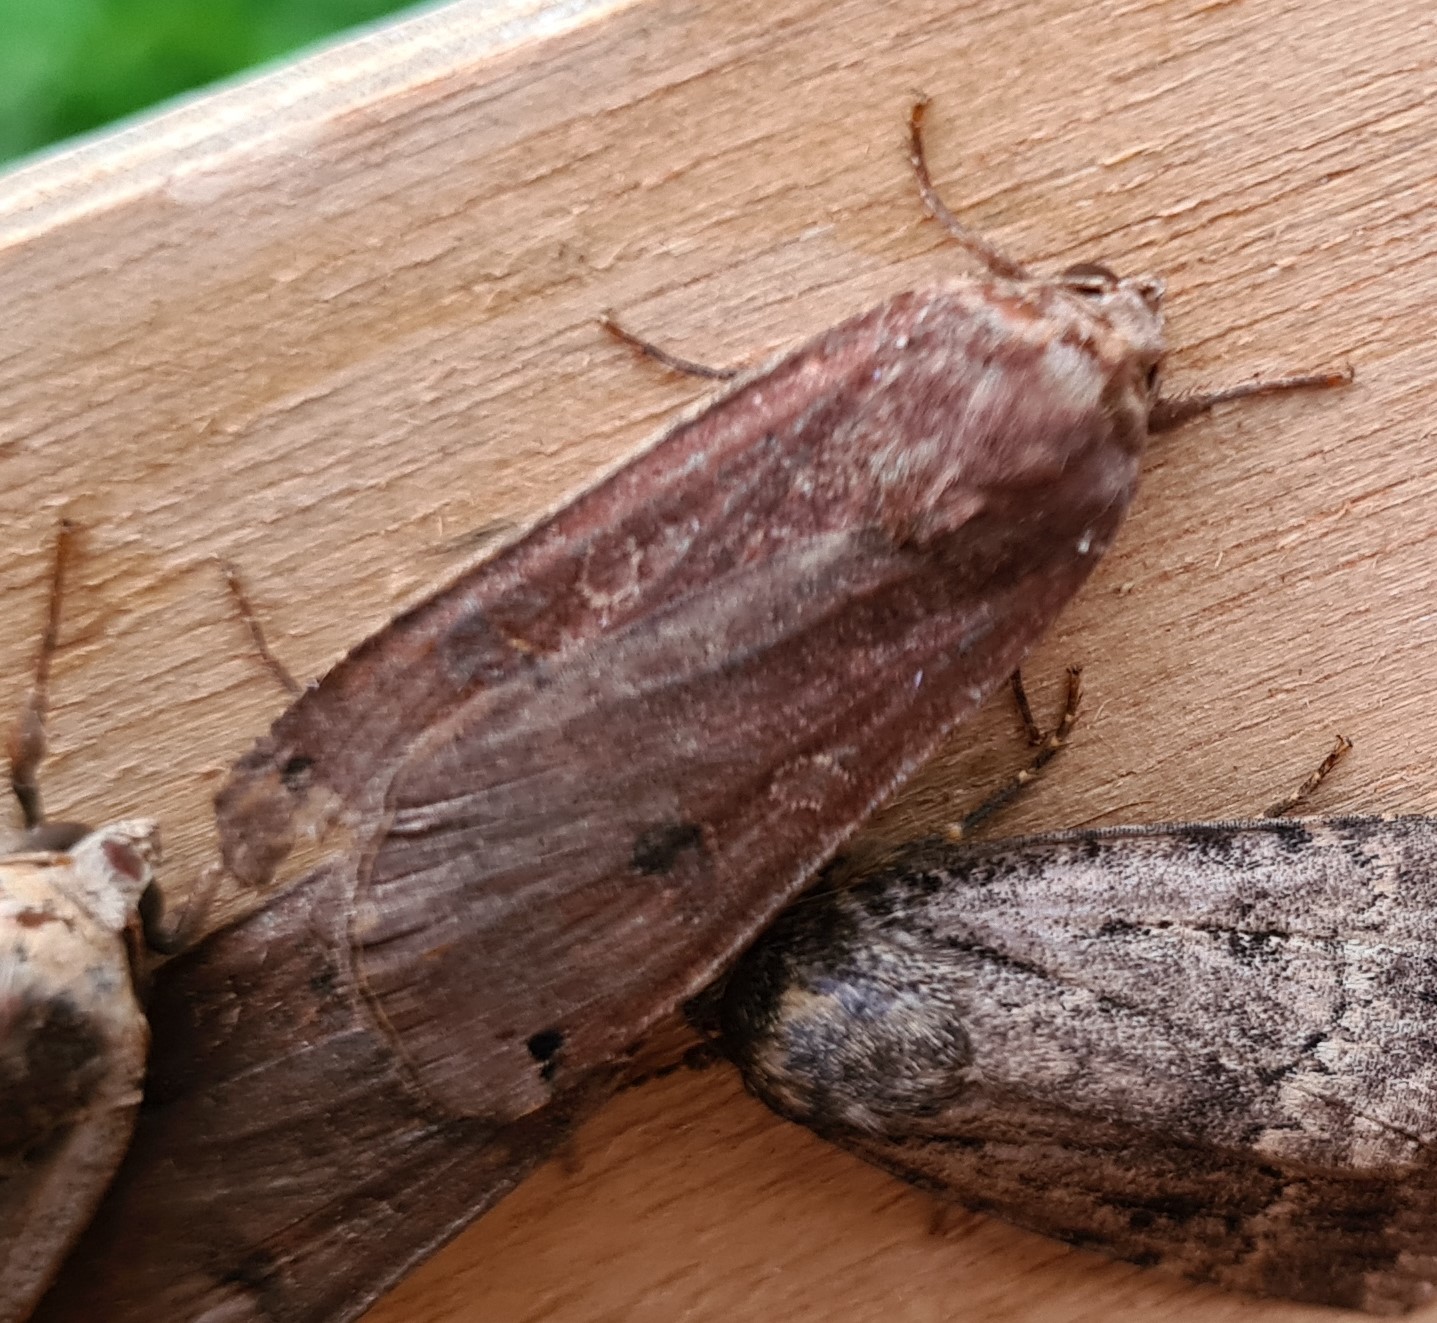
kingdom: Animalia
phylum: Arthropoda
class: Insecta
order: Lepidoptera
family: Noctuidae
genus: Noctua
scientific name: Noctua pronuba
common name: Large yellow underwing
